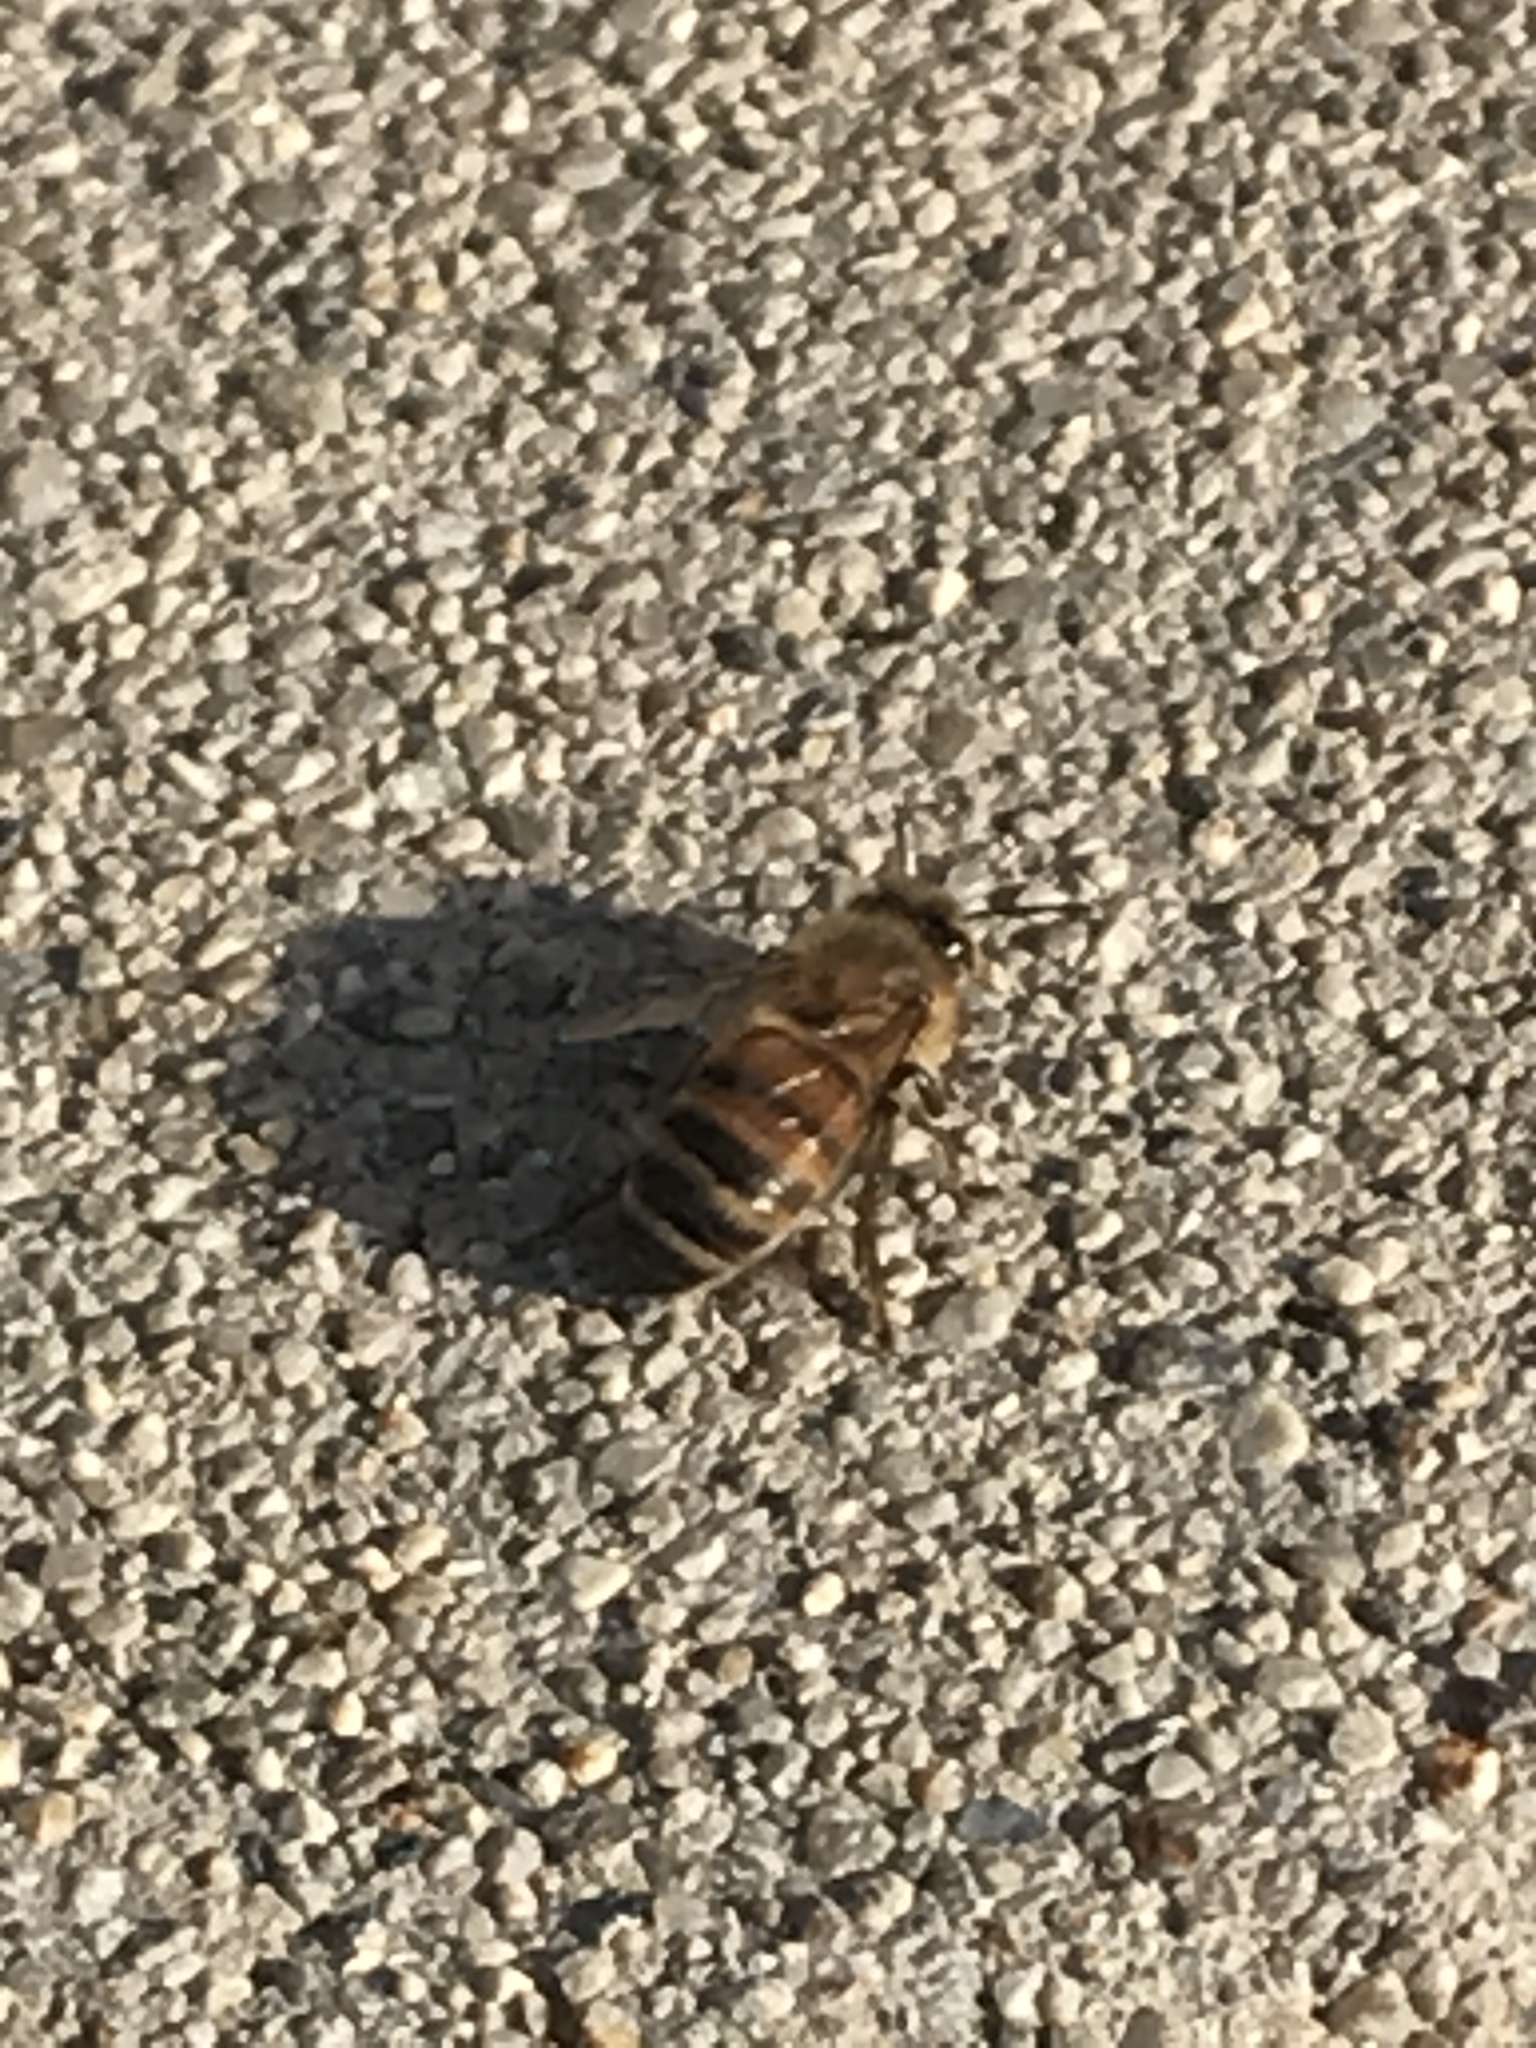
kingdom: Animalia
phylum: Arthropoda
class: Insecta
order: Hymenoptera
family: Apidae
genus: Apis
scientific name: Apis mellifera
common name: Honey bee
